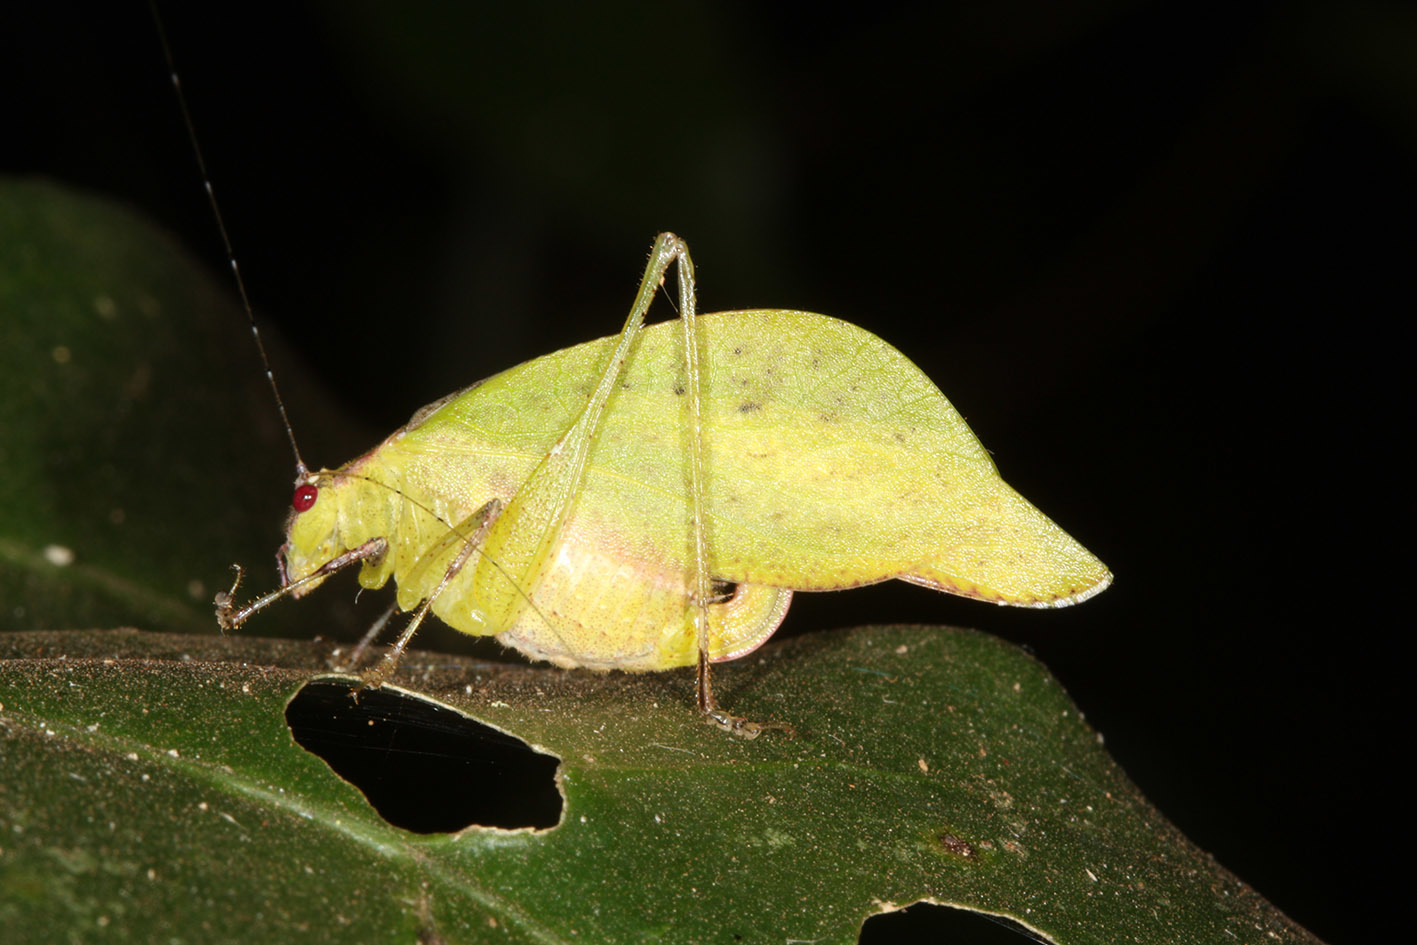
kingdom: Animalia
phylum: Arthropoda
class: Insecta
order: Orthoptera
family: Tettigoniidae
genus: Topana
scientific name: Topana aguilari
